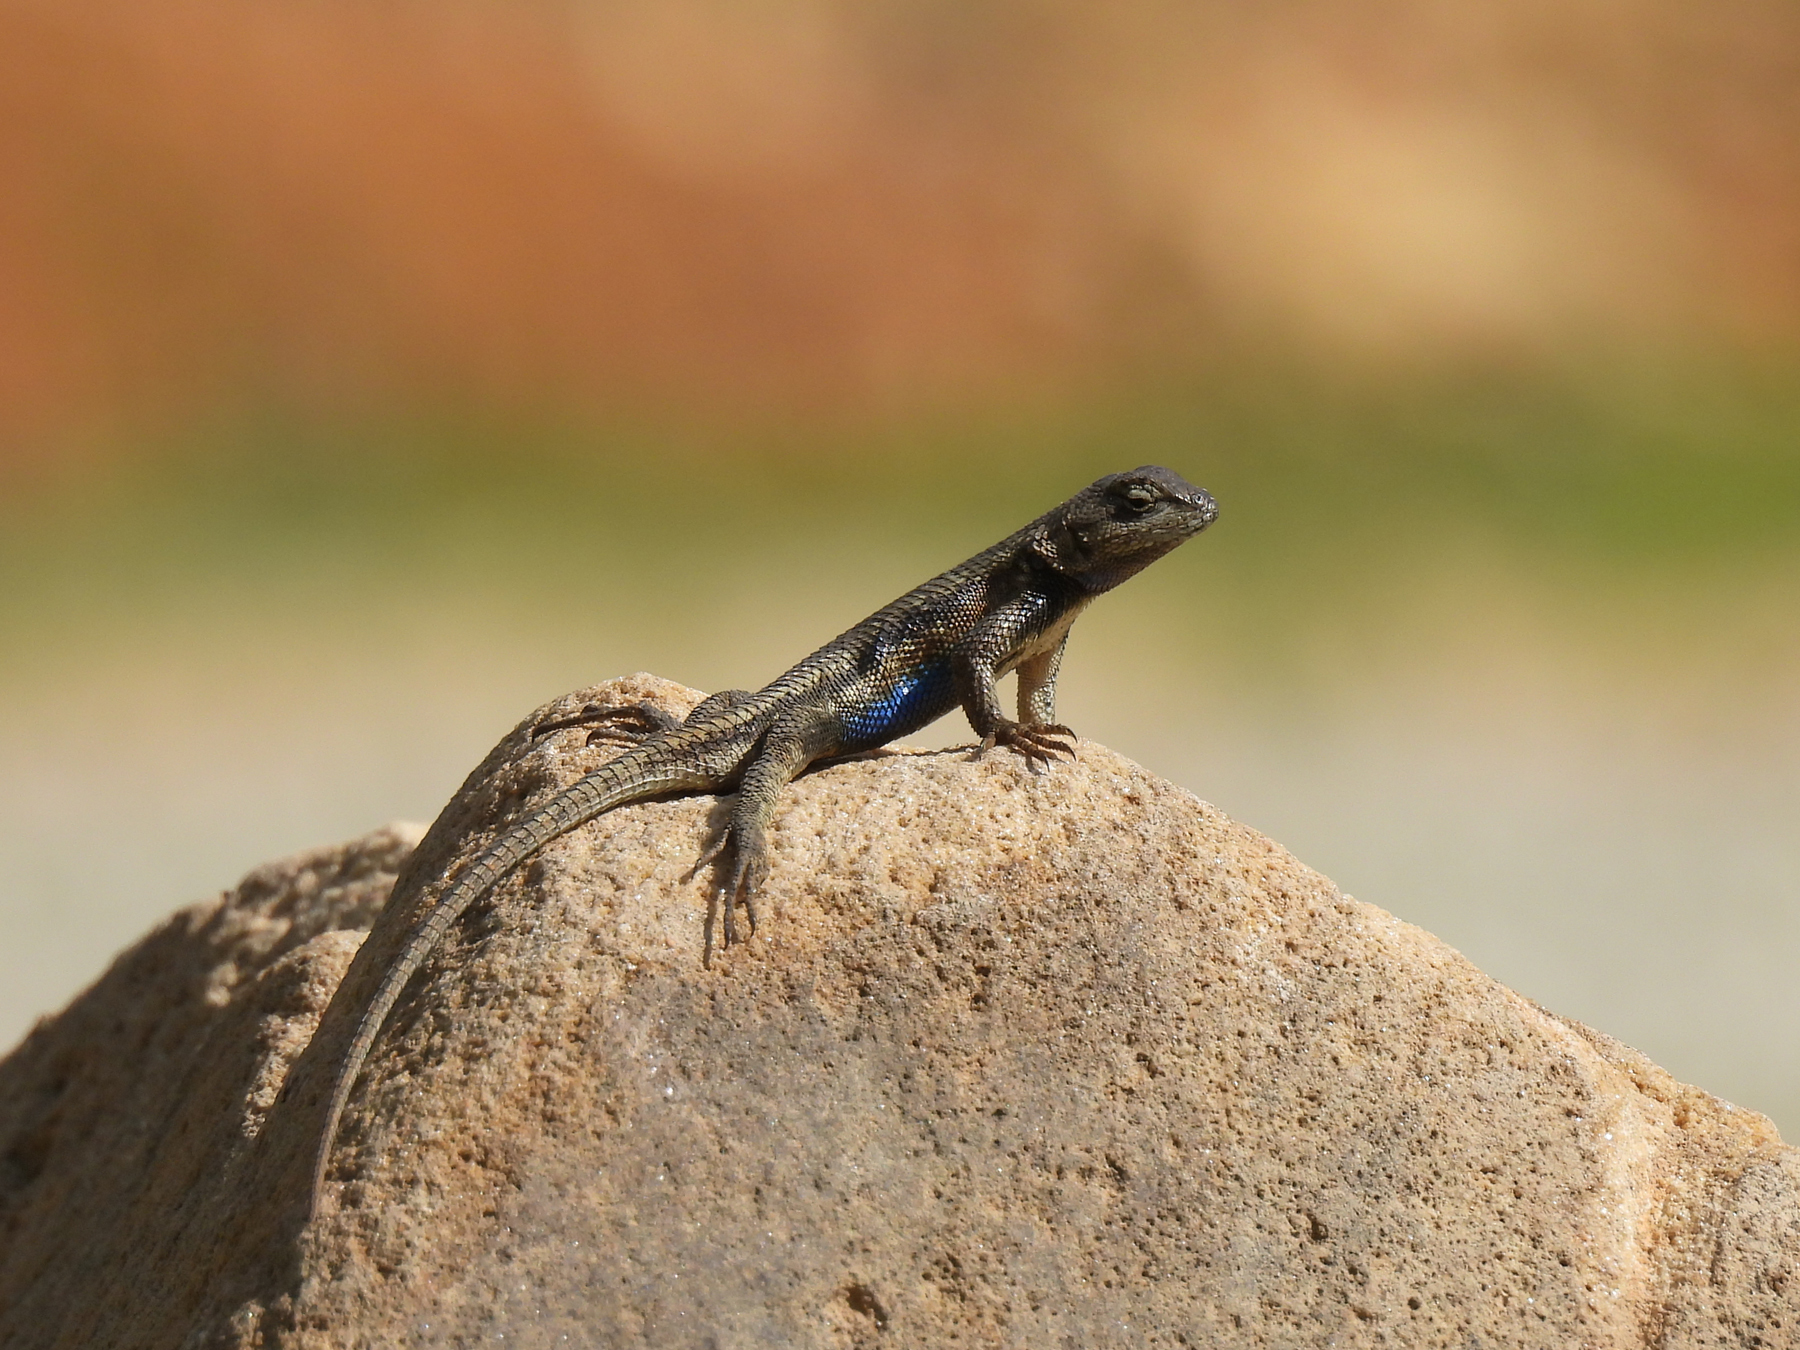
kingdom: Animalia
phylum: Chordata
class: Squamata
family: Phrynosomatidae
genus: Sceloporus
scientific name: Sceloporus consobrinus
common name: Southern prairie lizard
